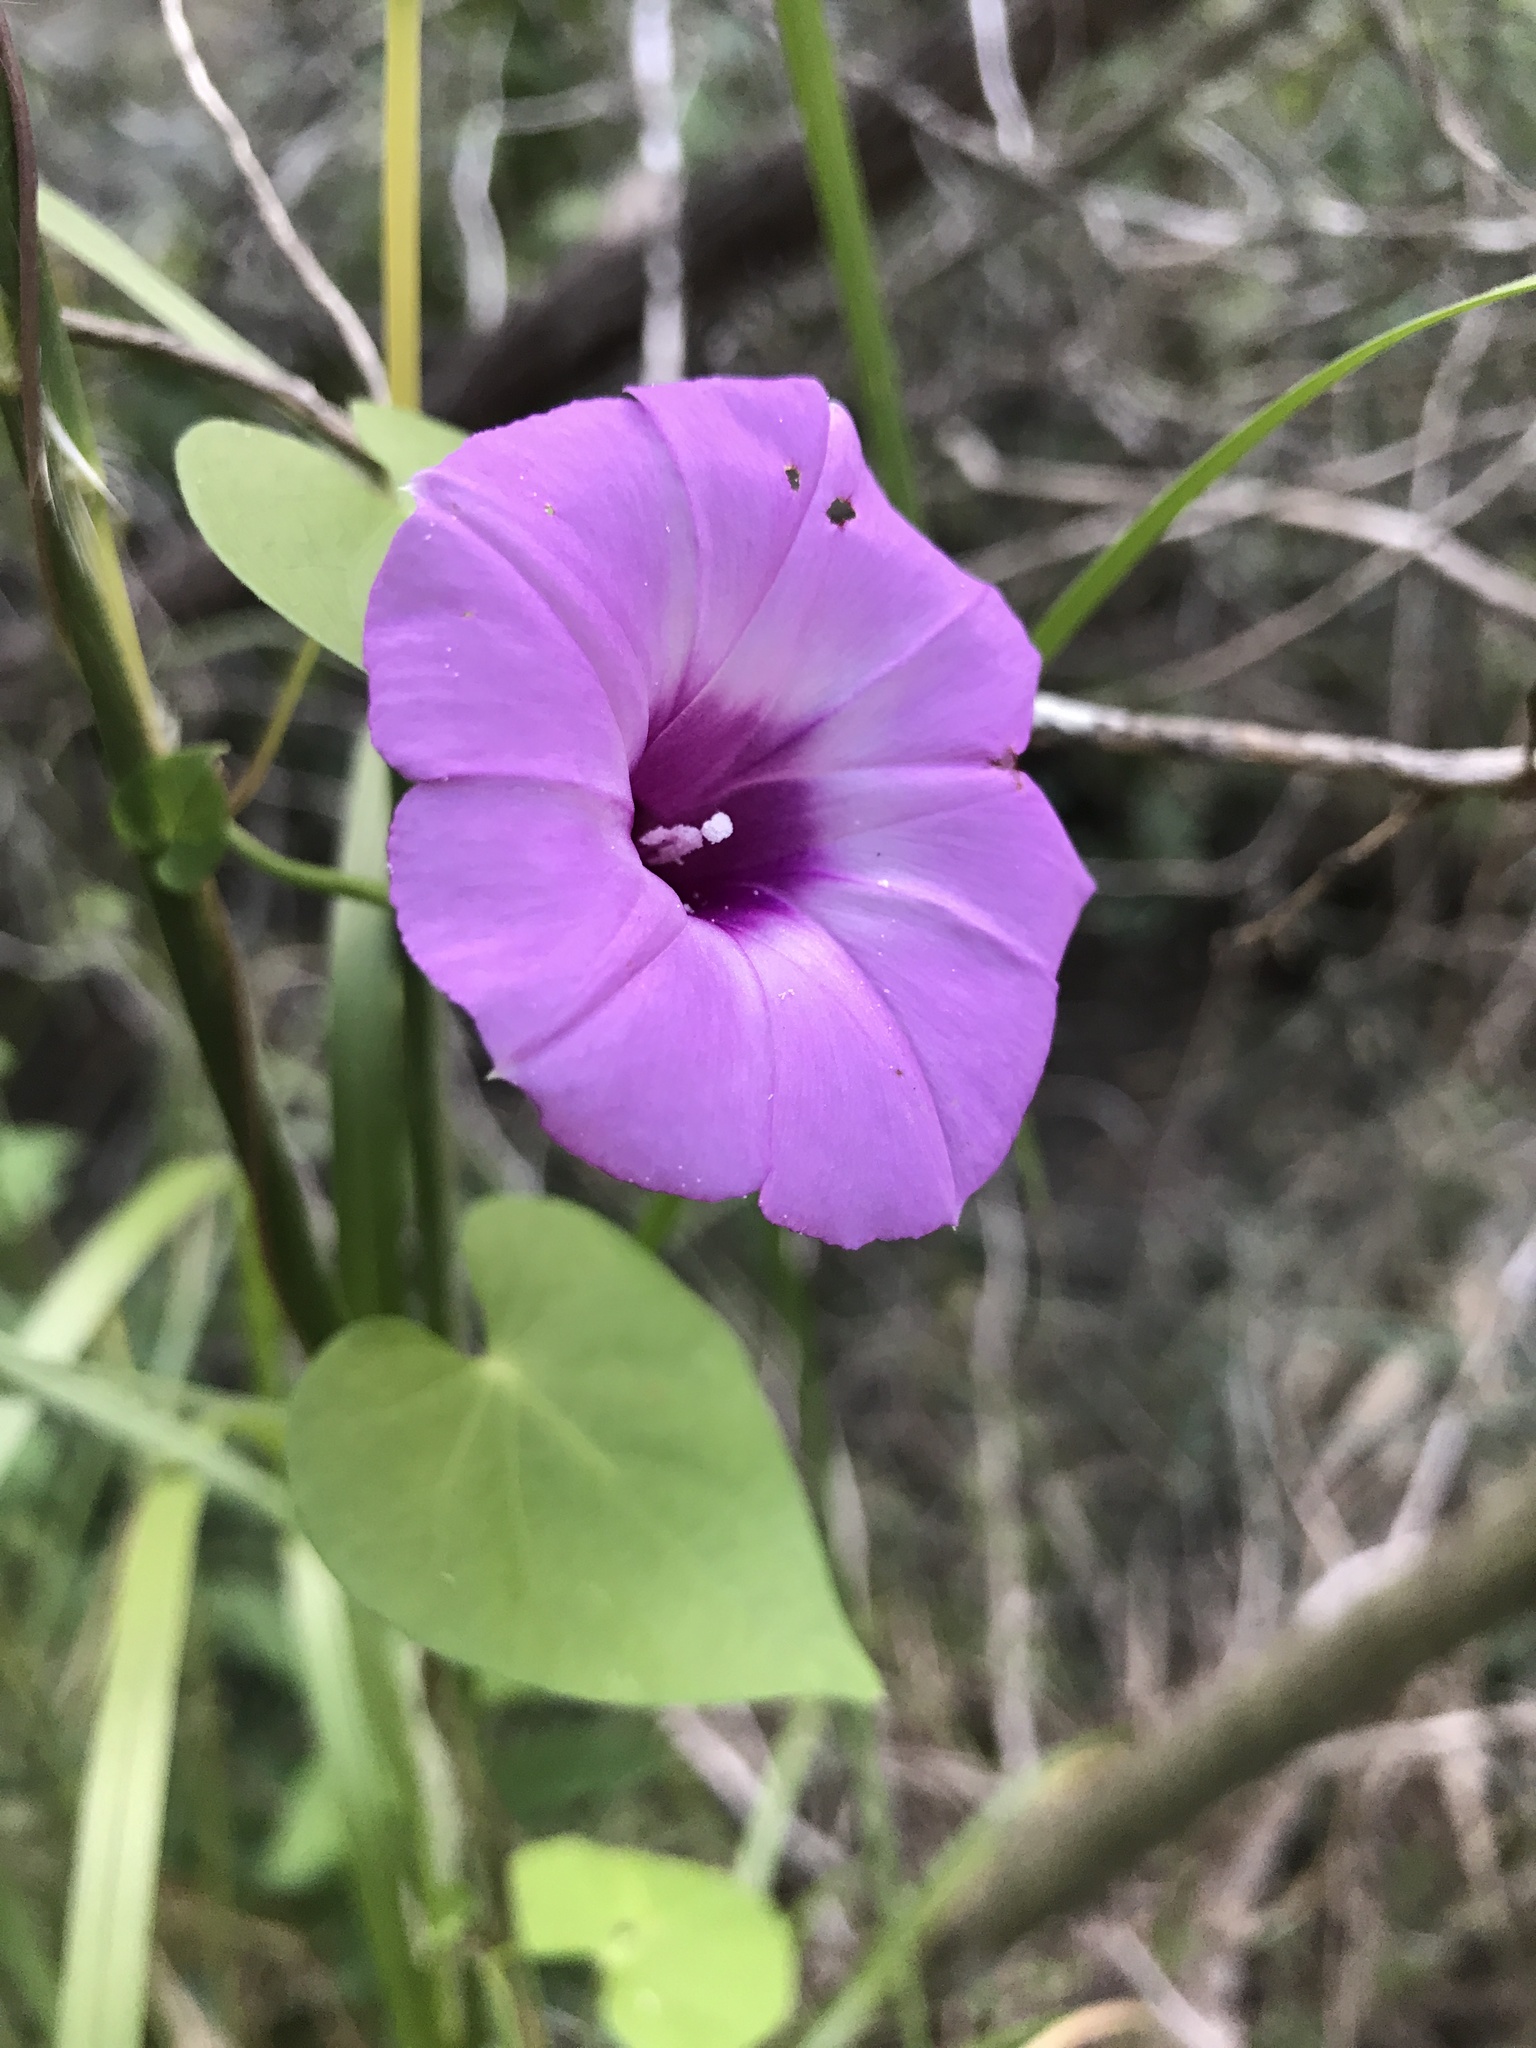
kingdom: Plantae
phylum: Tracheophyta
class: Magnoliopsida
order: Solanales
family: Convolvulaceae
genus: Ipomoea
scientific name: Ipomoea cordatotriloba
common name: Cotton morning glory
